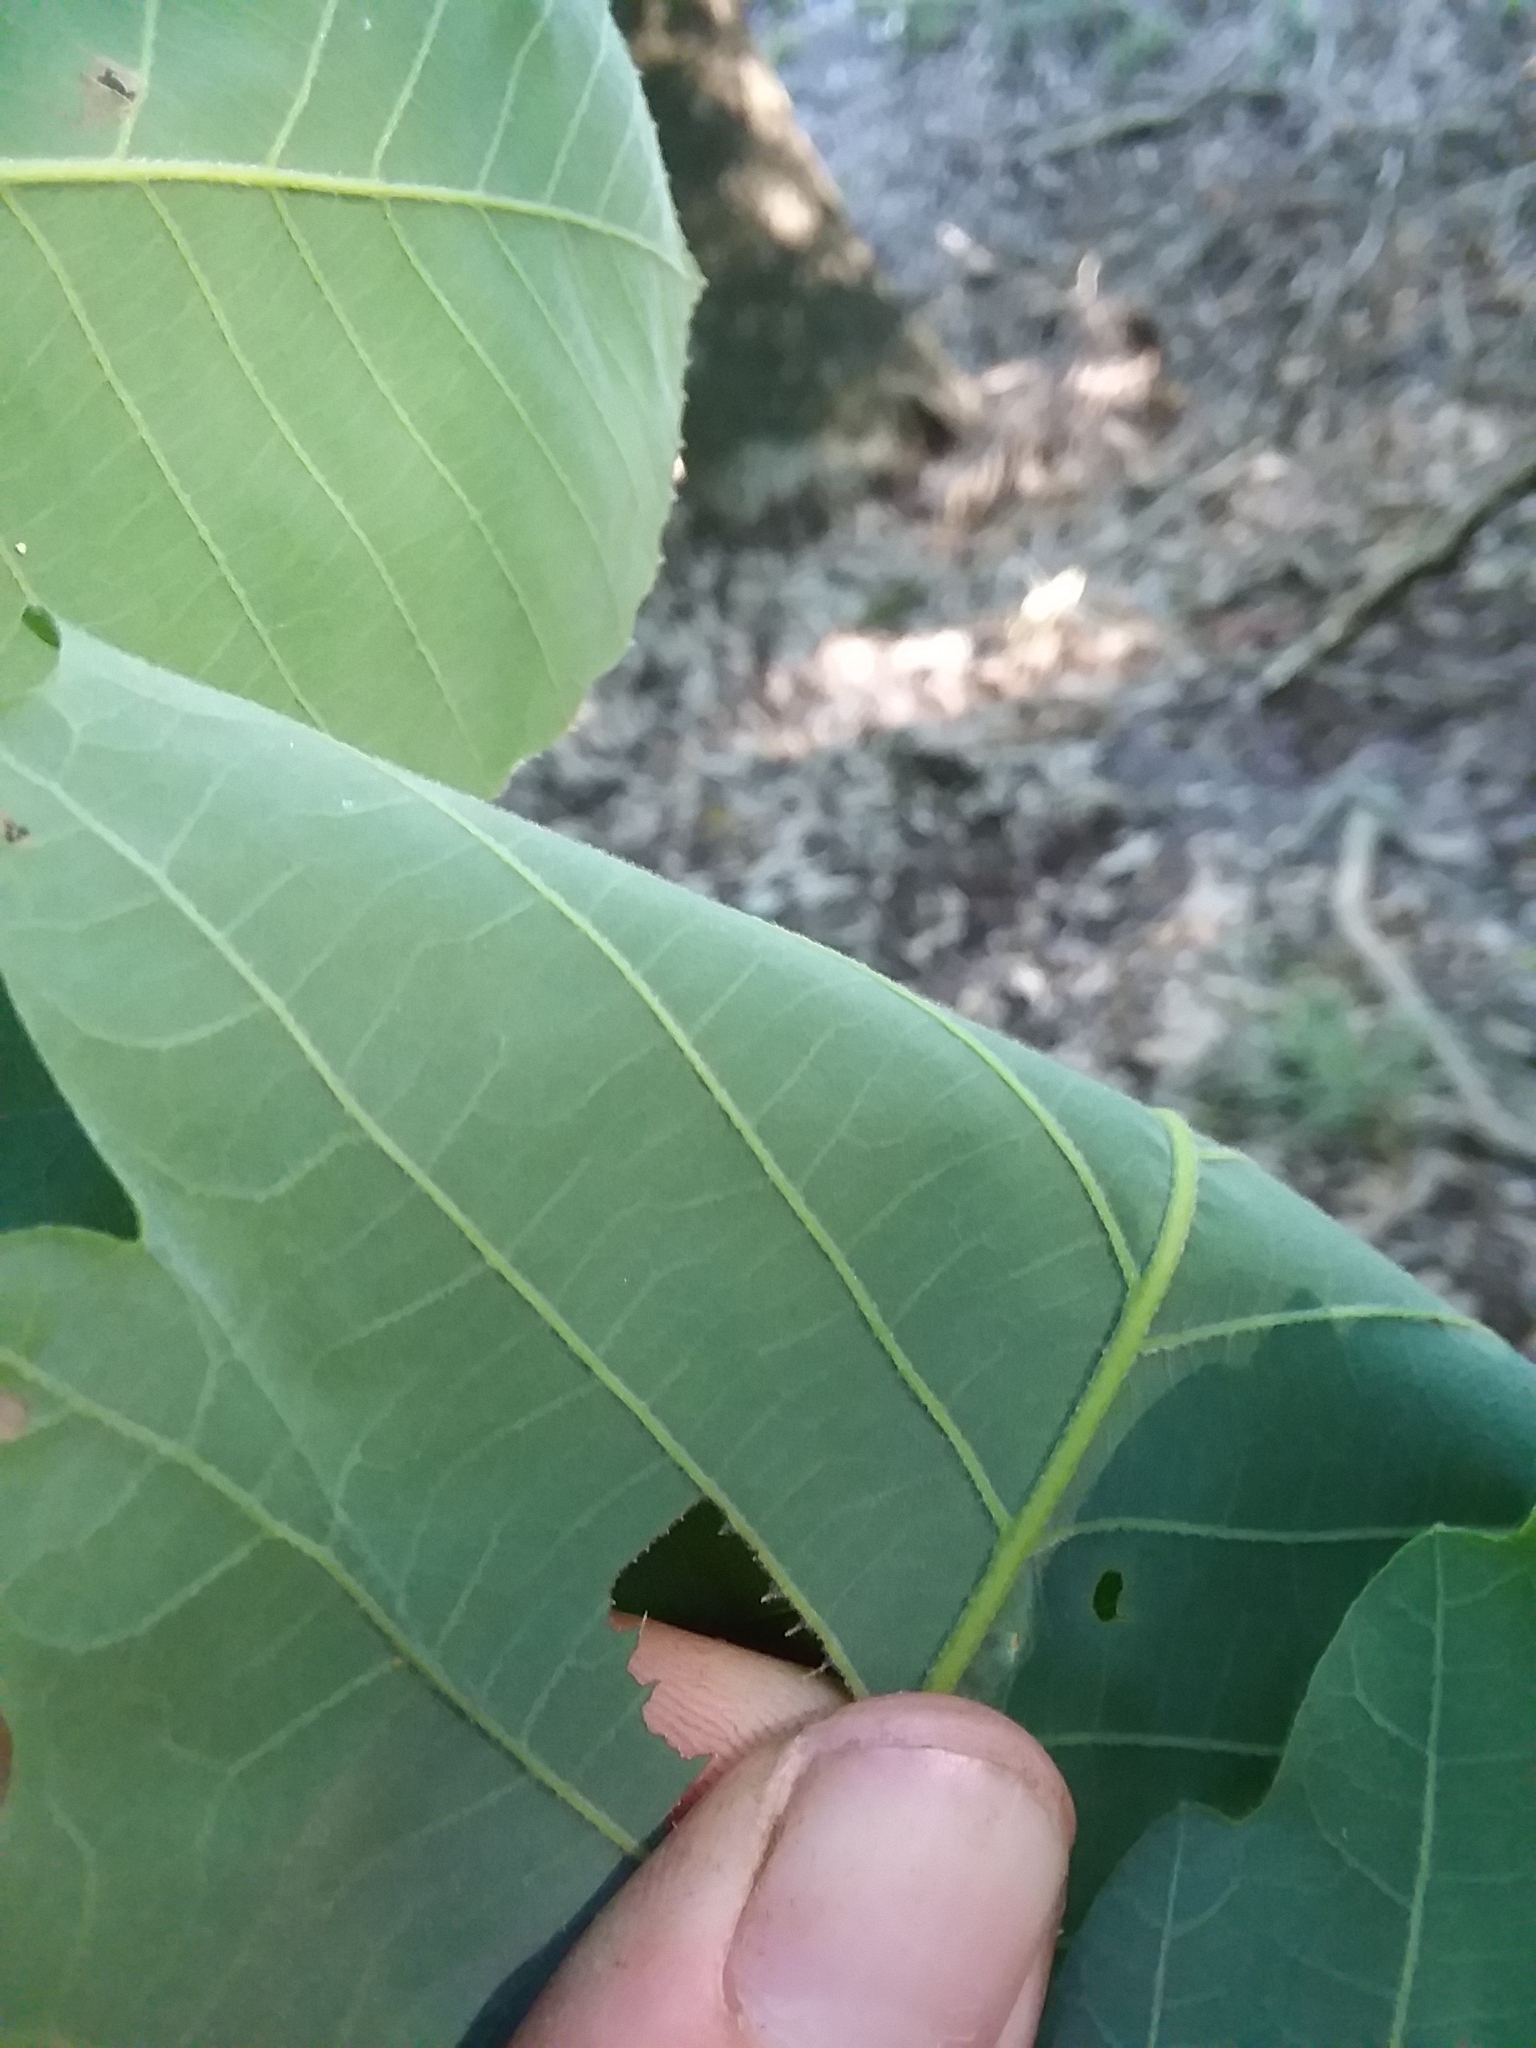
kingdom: Plantae
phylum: Tracheophyta
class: Magnoliopsida
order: Fagales
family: Fagaceae
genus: Quercus
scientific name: Quercus michauxii
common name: Swamp chestnut oak
